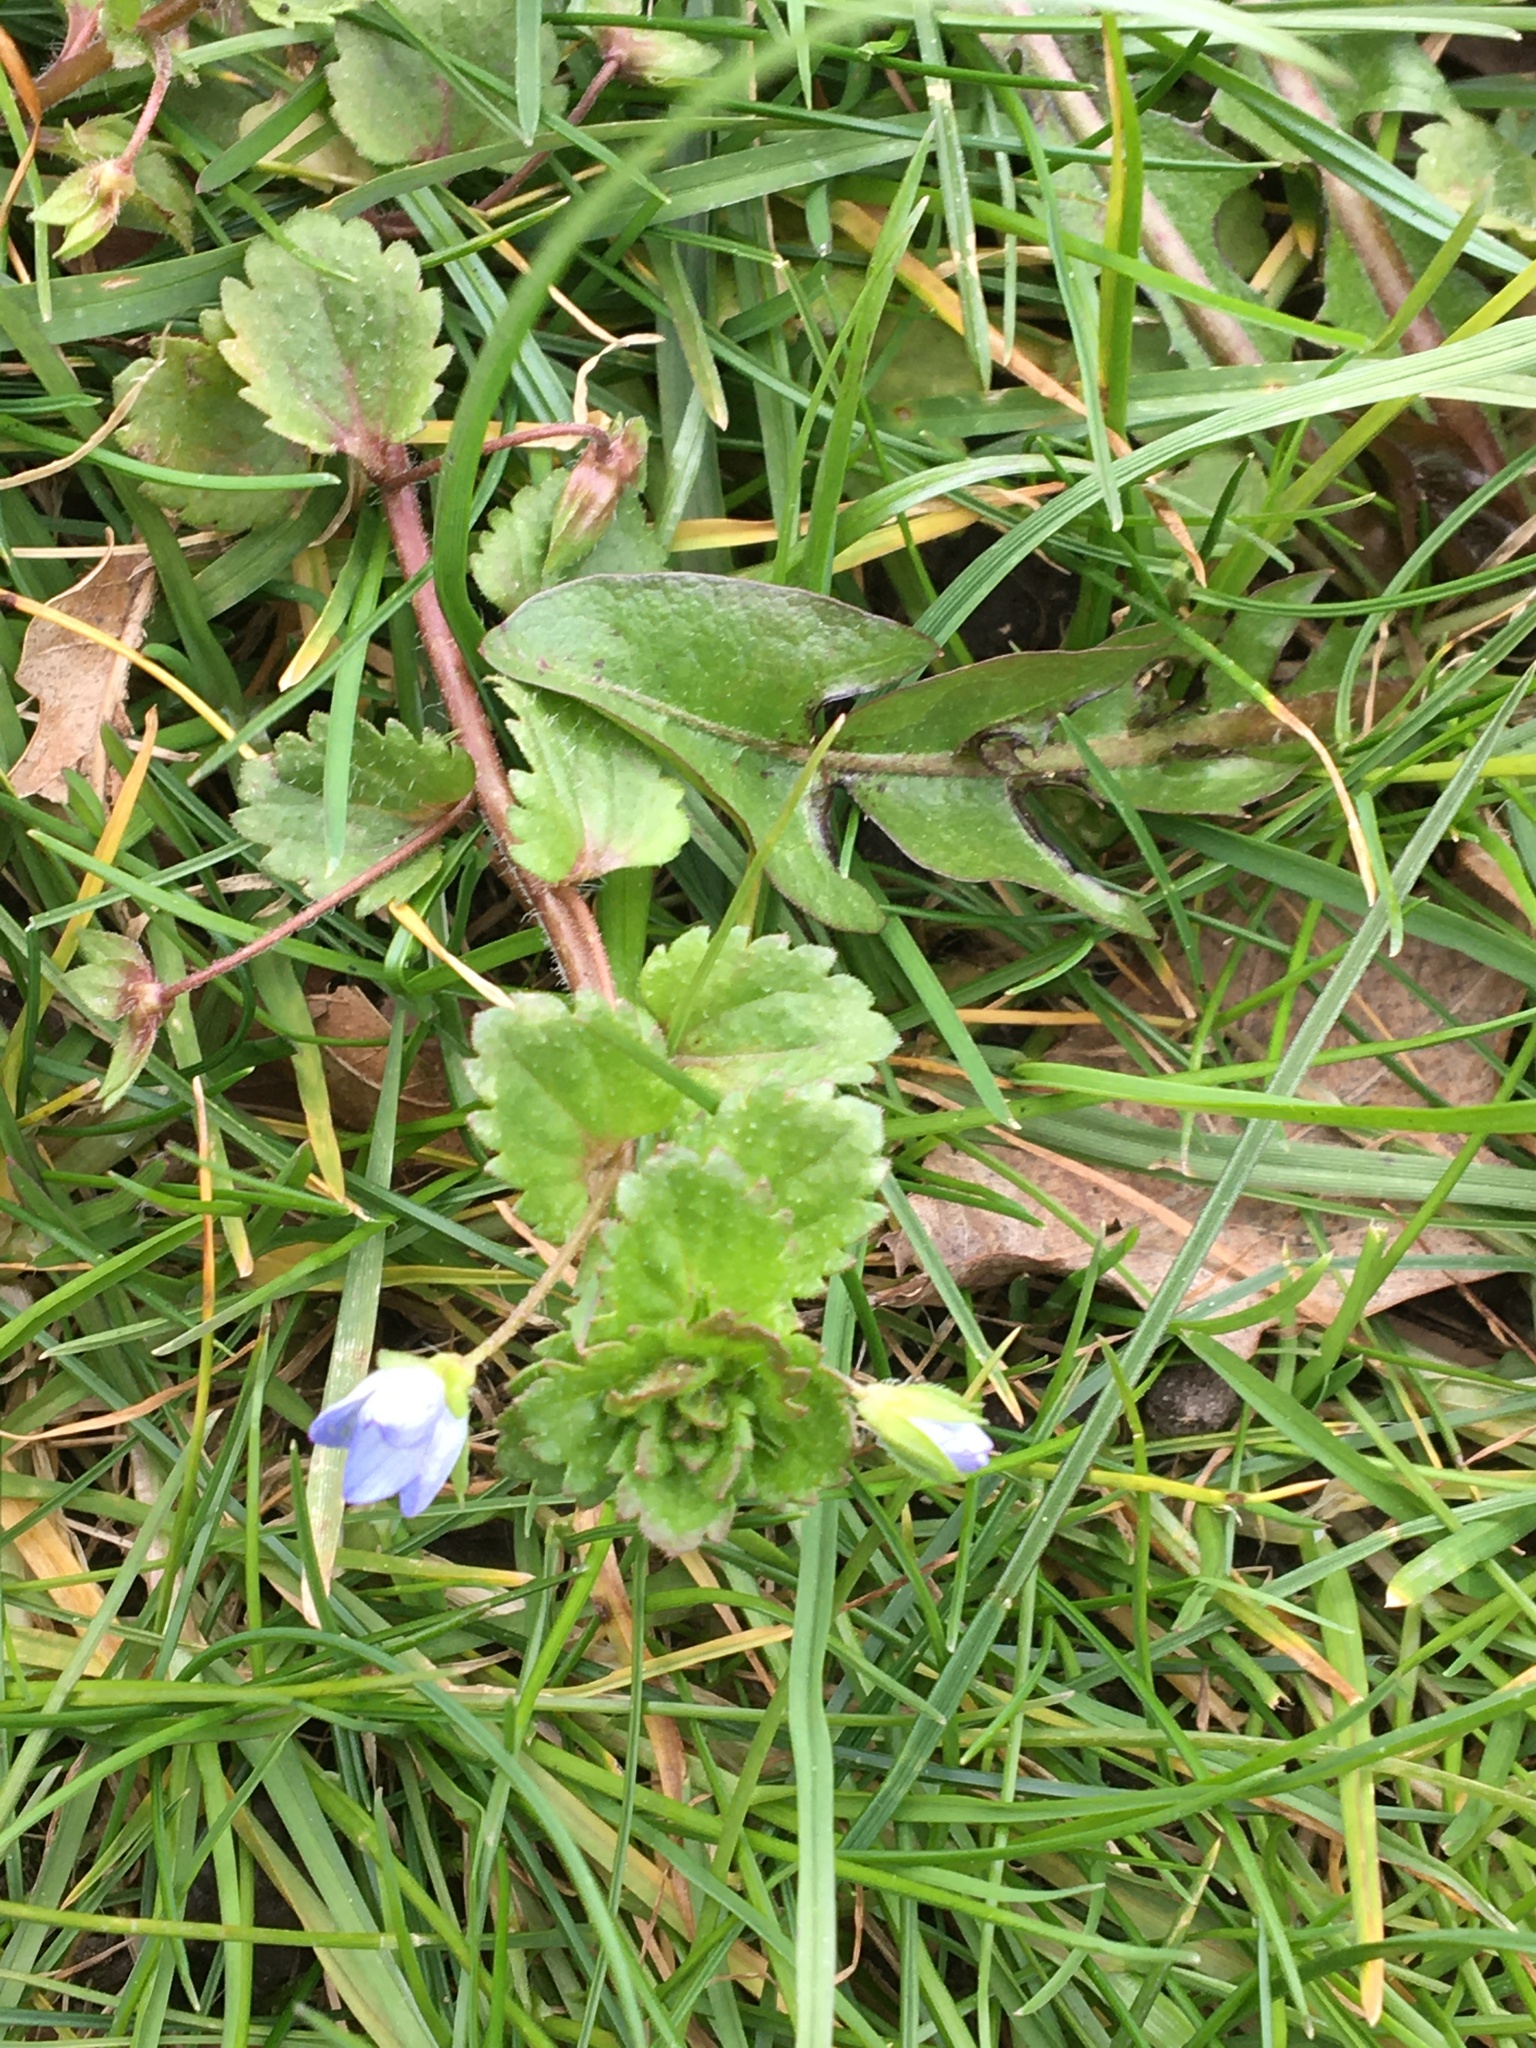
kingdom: Plantae
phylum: Tracheophyta
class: Magnoliopsida
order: Lamiales
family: Plantaginaceae
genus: Veronica
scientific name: Veronica persica
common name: Common field-speedwell
